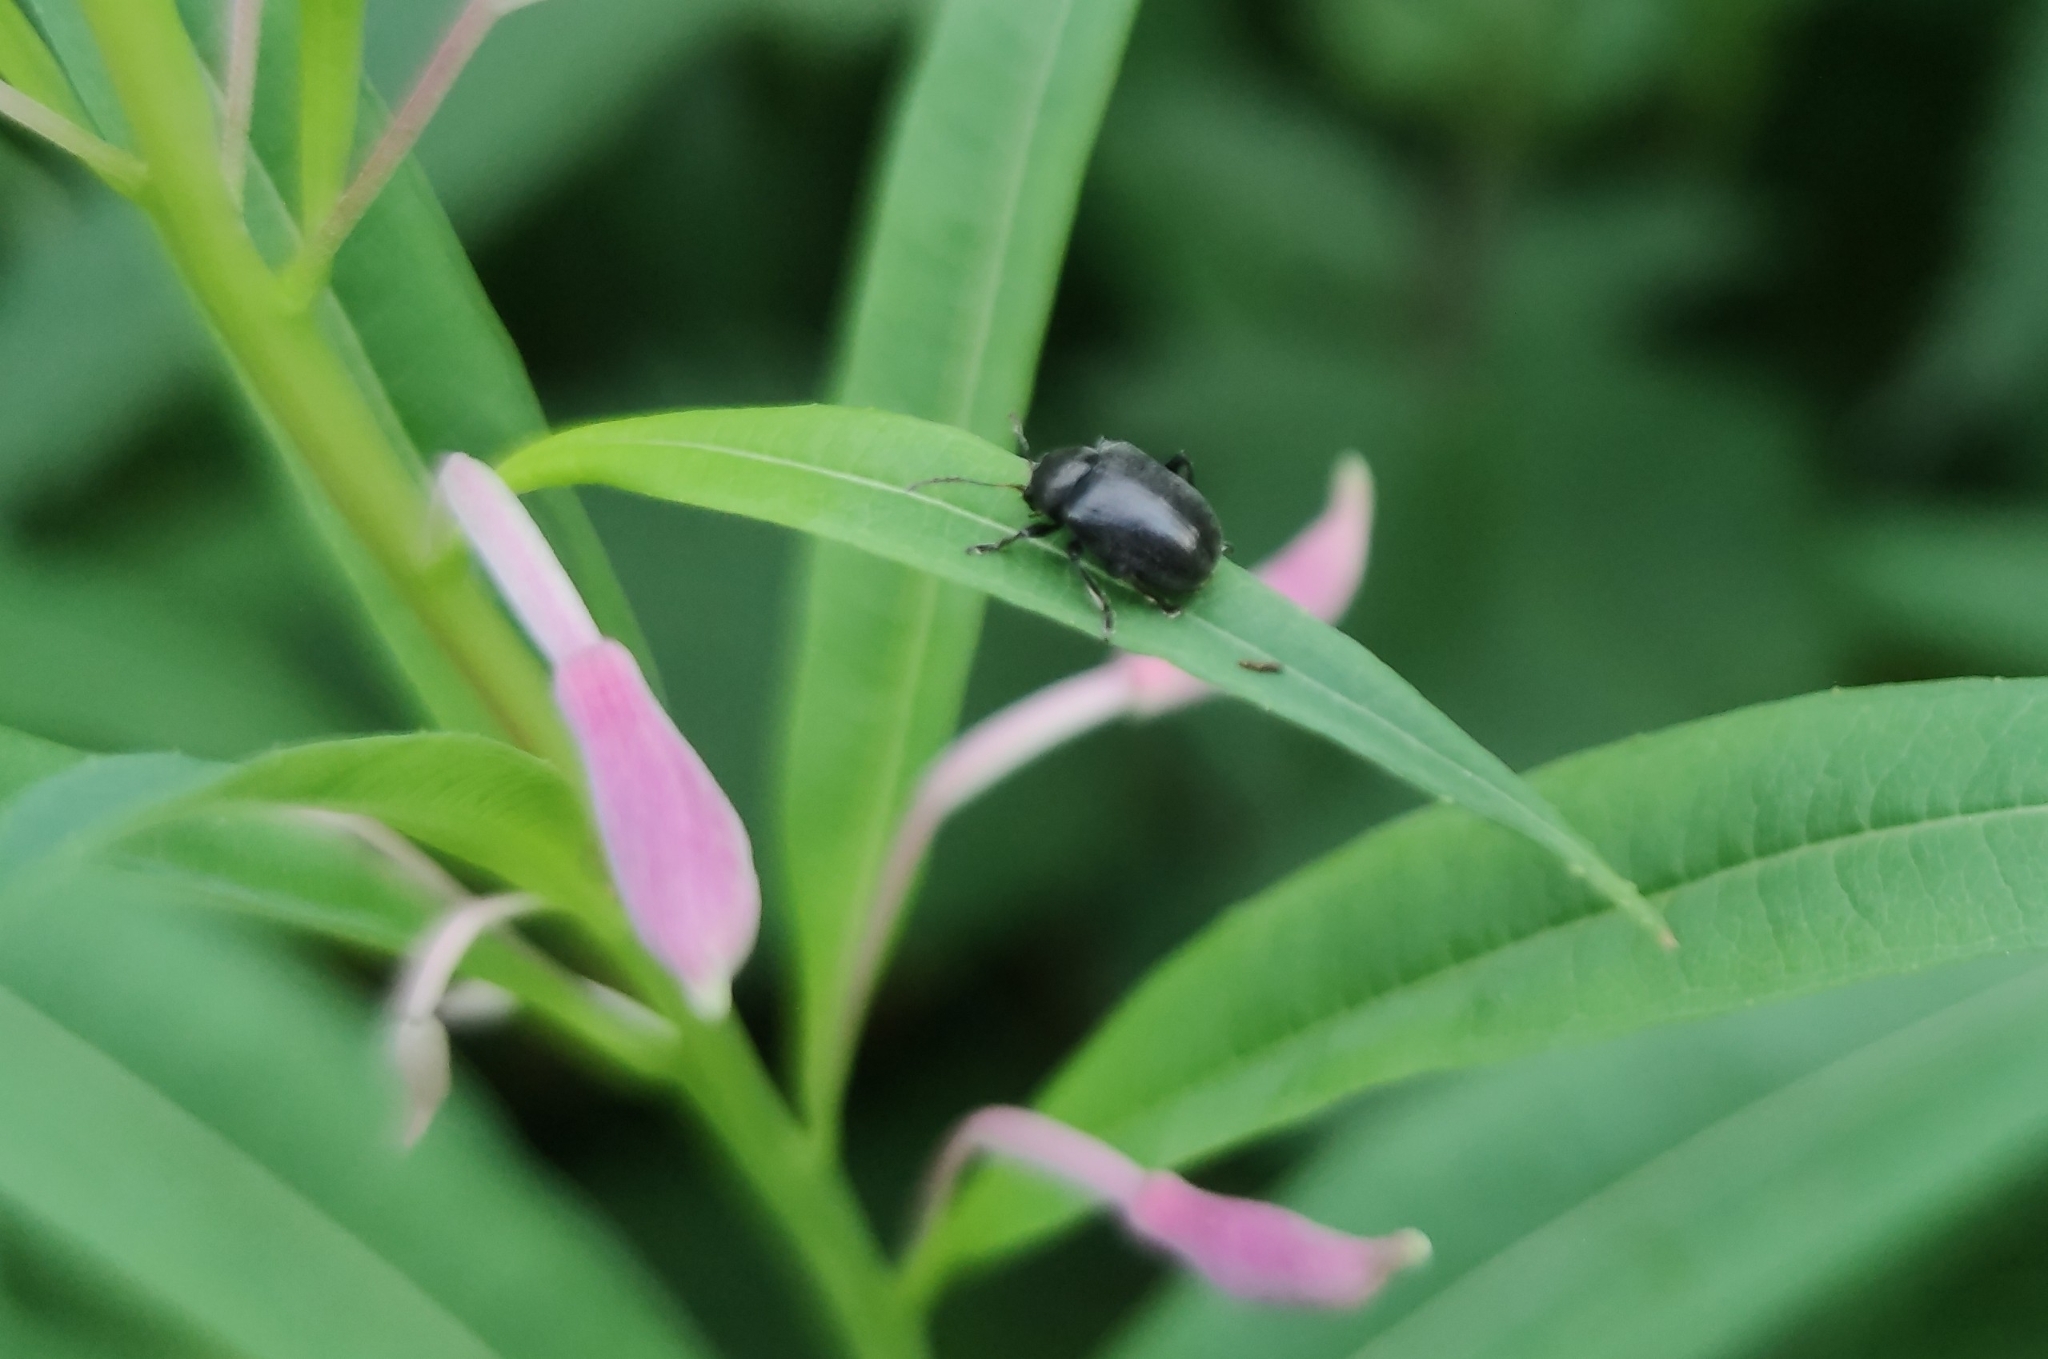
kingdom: Animalia
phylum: Arthropoda
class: Insecta
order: Coleoptera
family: Chrysomelidae
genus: Bromius
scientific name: Bromius obscurus
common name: Western grape rootworm
